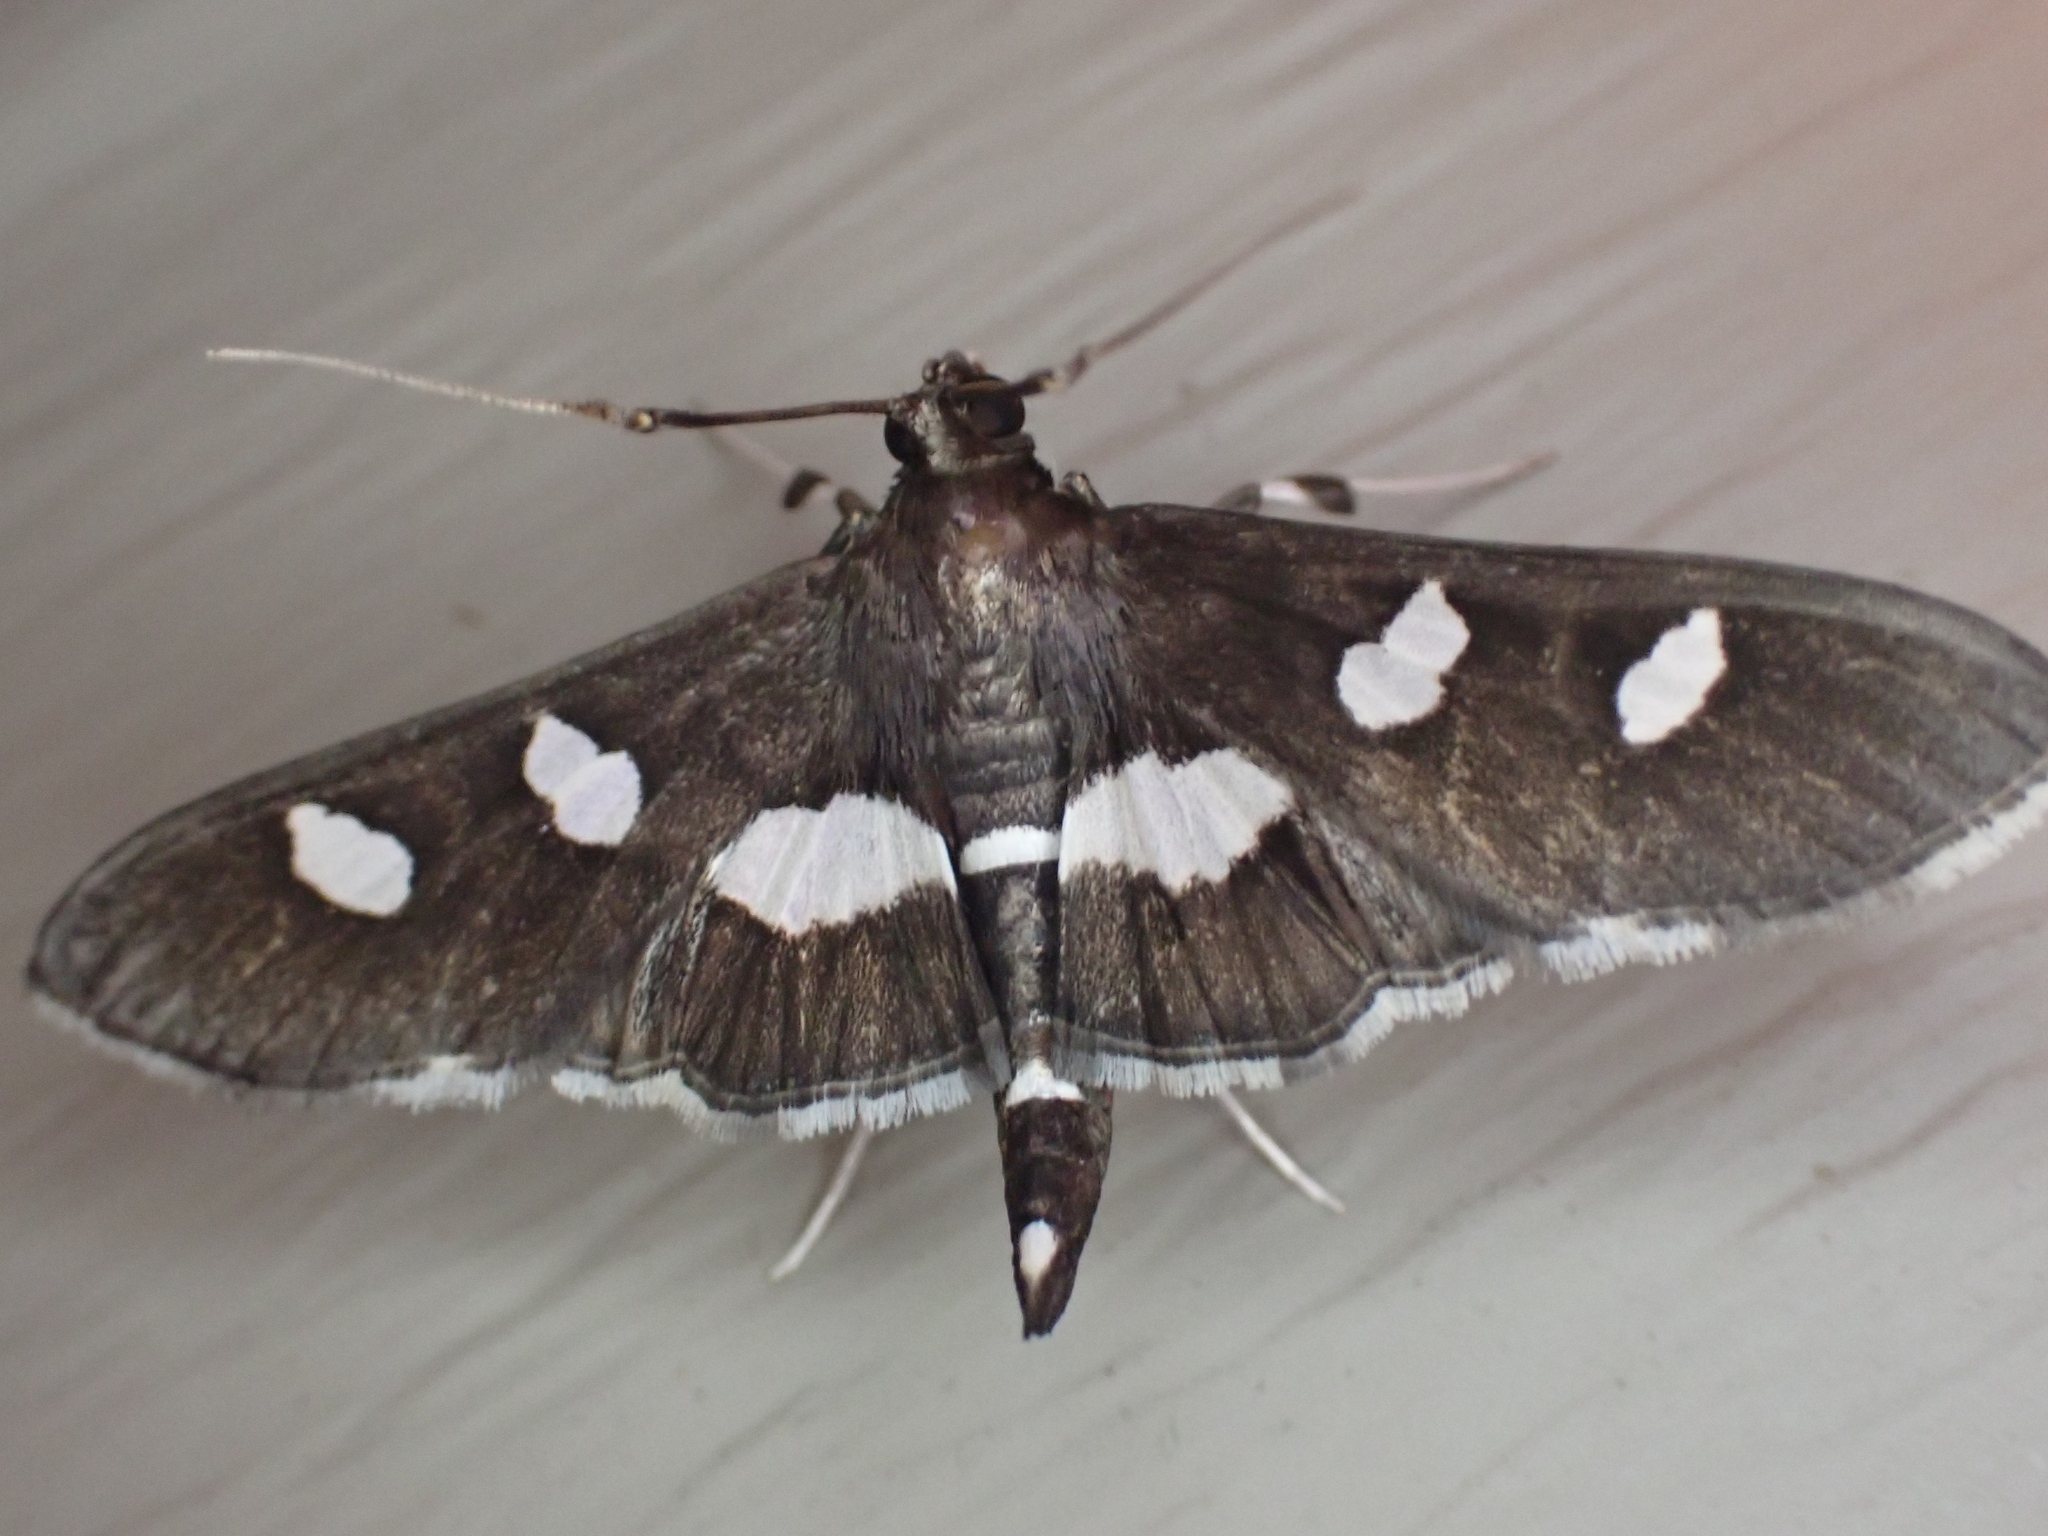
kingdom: Animalia
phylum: Arthropoda
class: Insecta
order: Lepidoptera
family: Crambidae
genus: Desmia
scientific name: Desmia funeralis
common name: Grape leaf folder moth
